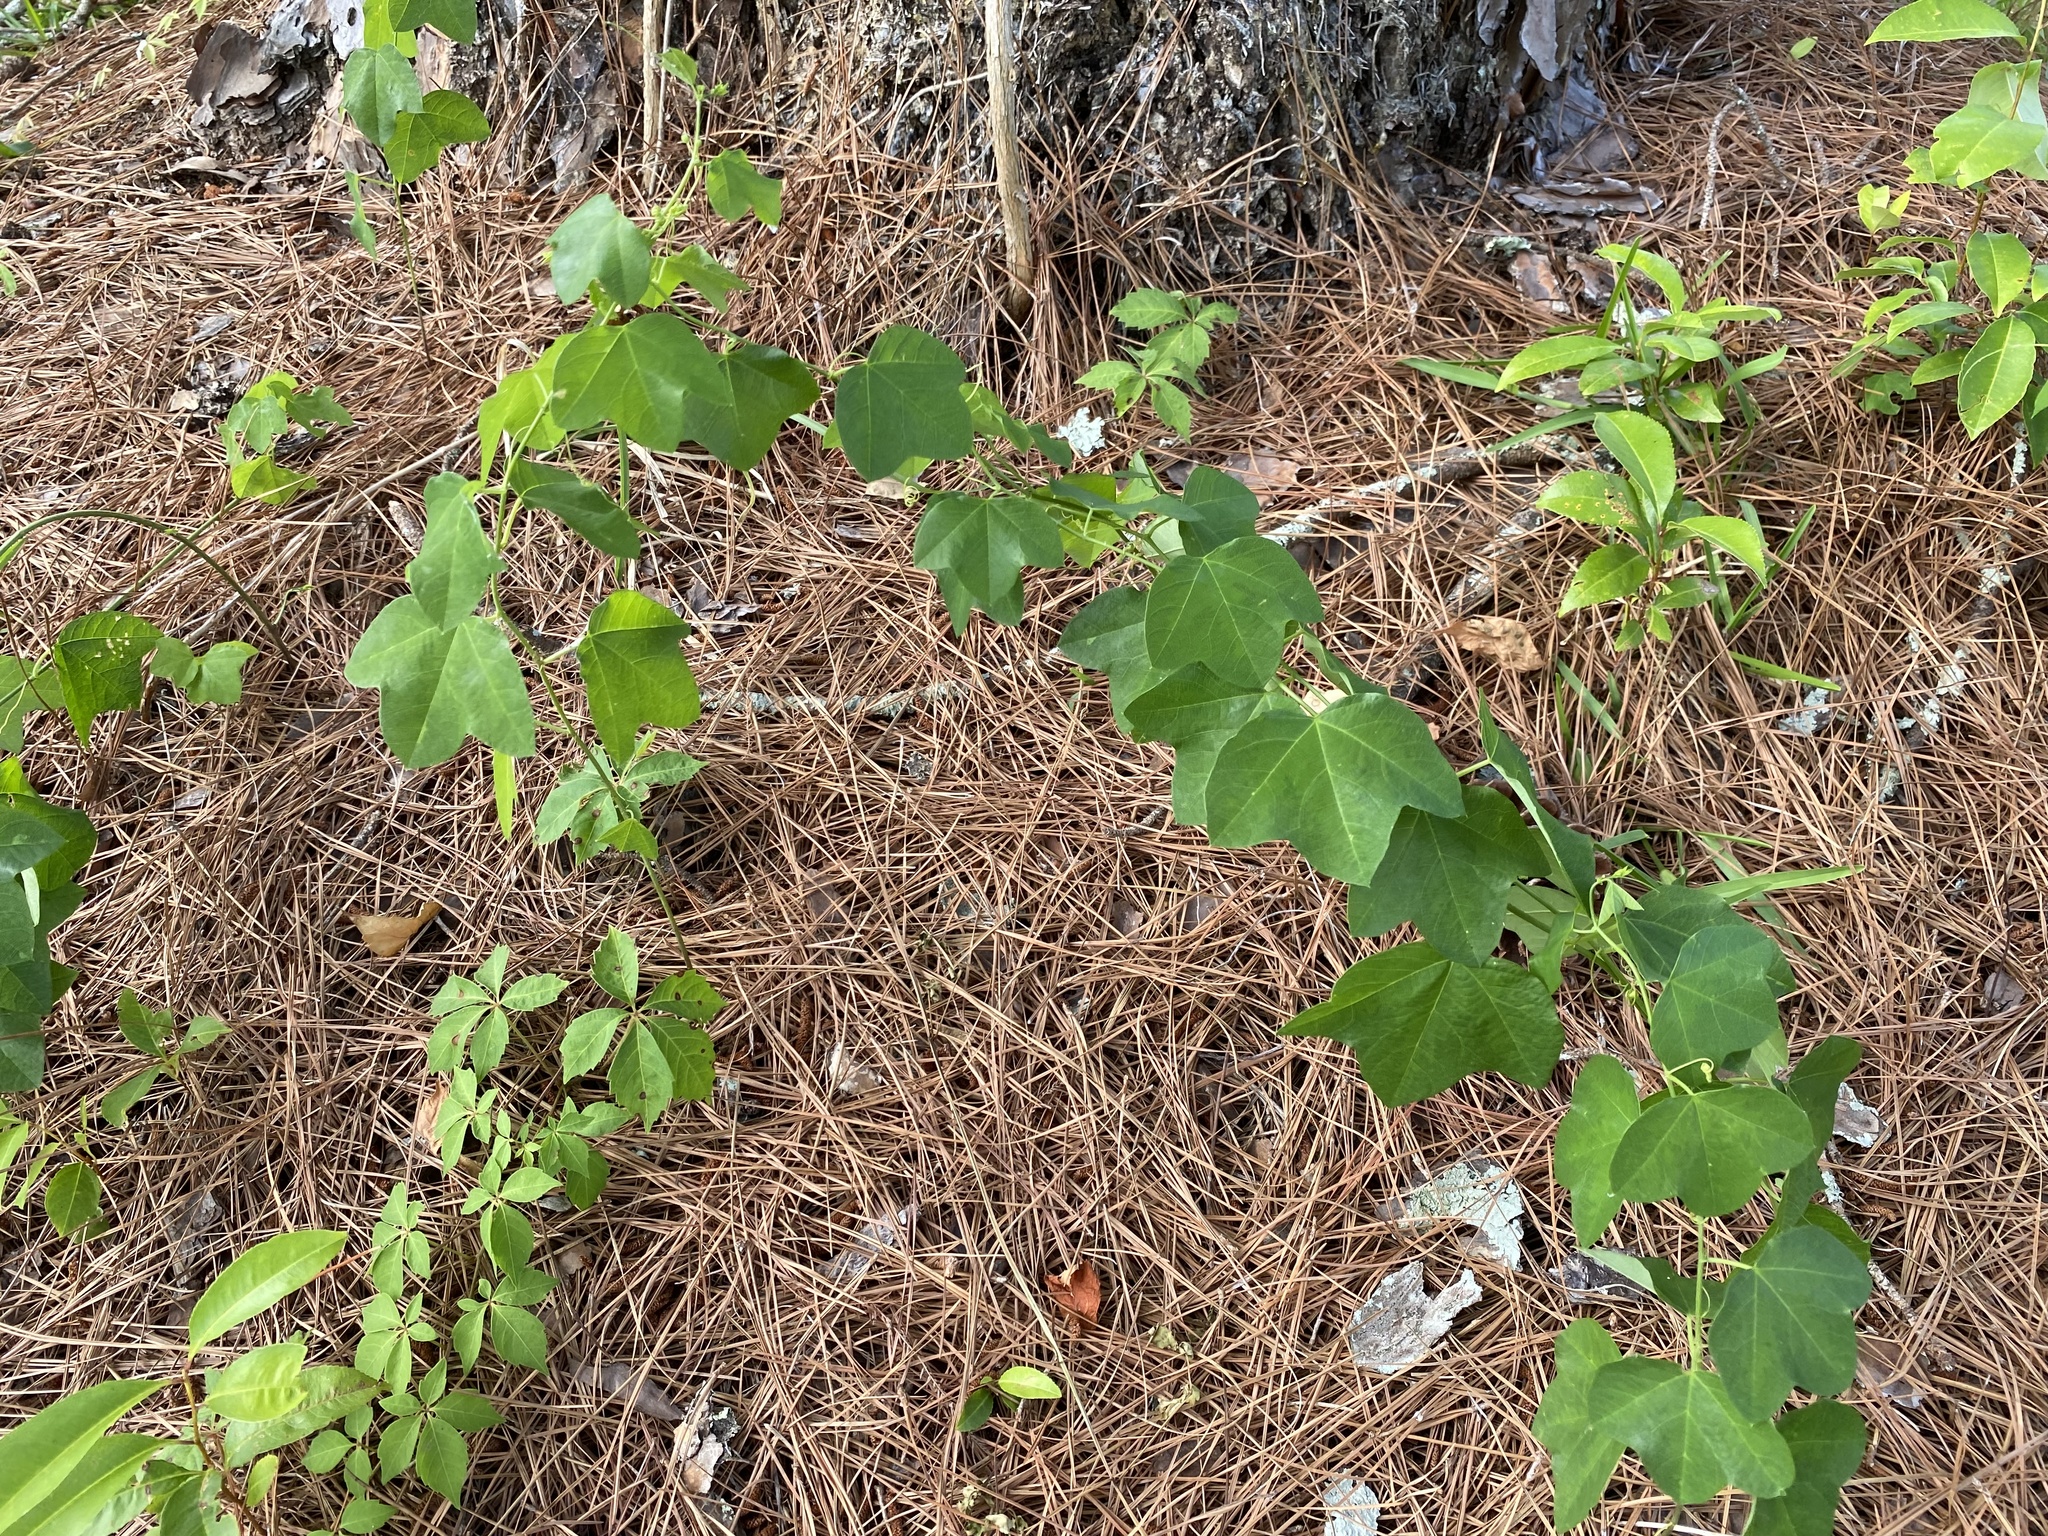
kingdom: Plantae
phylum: Tracheophyta
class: Magnoliopsida
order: Malpighiales
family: Passifloraceae
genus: Passiflora
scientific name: Passiflora lutea
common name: Yellow passionflower
